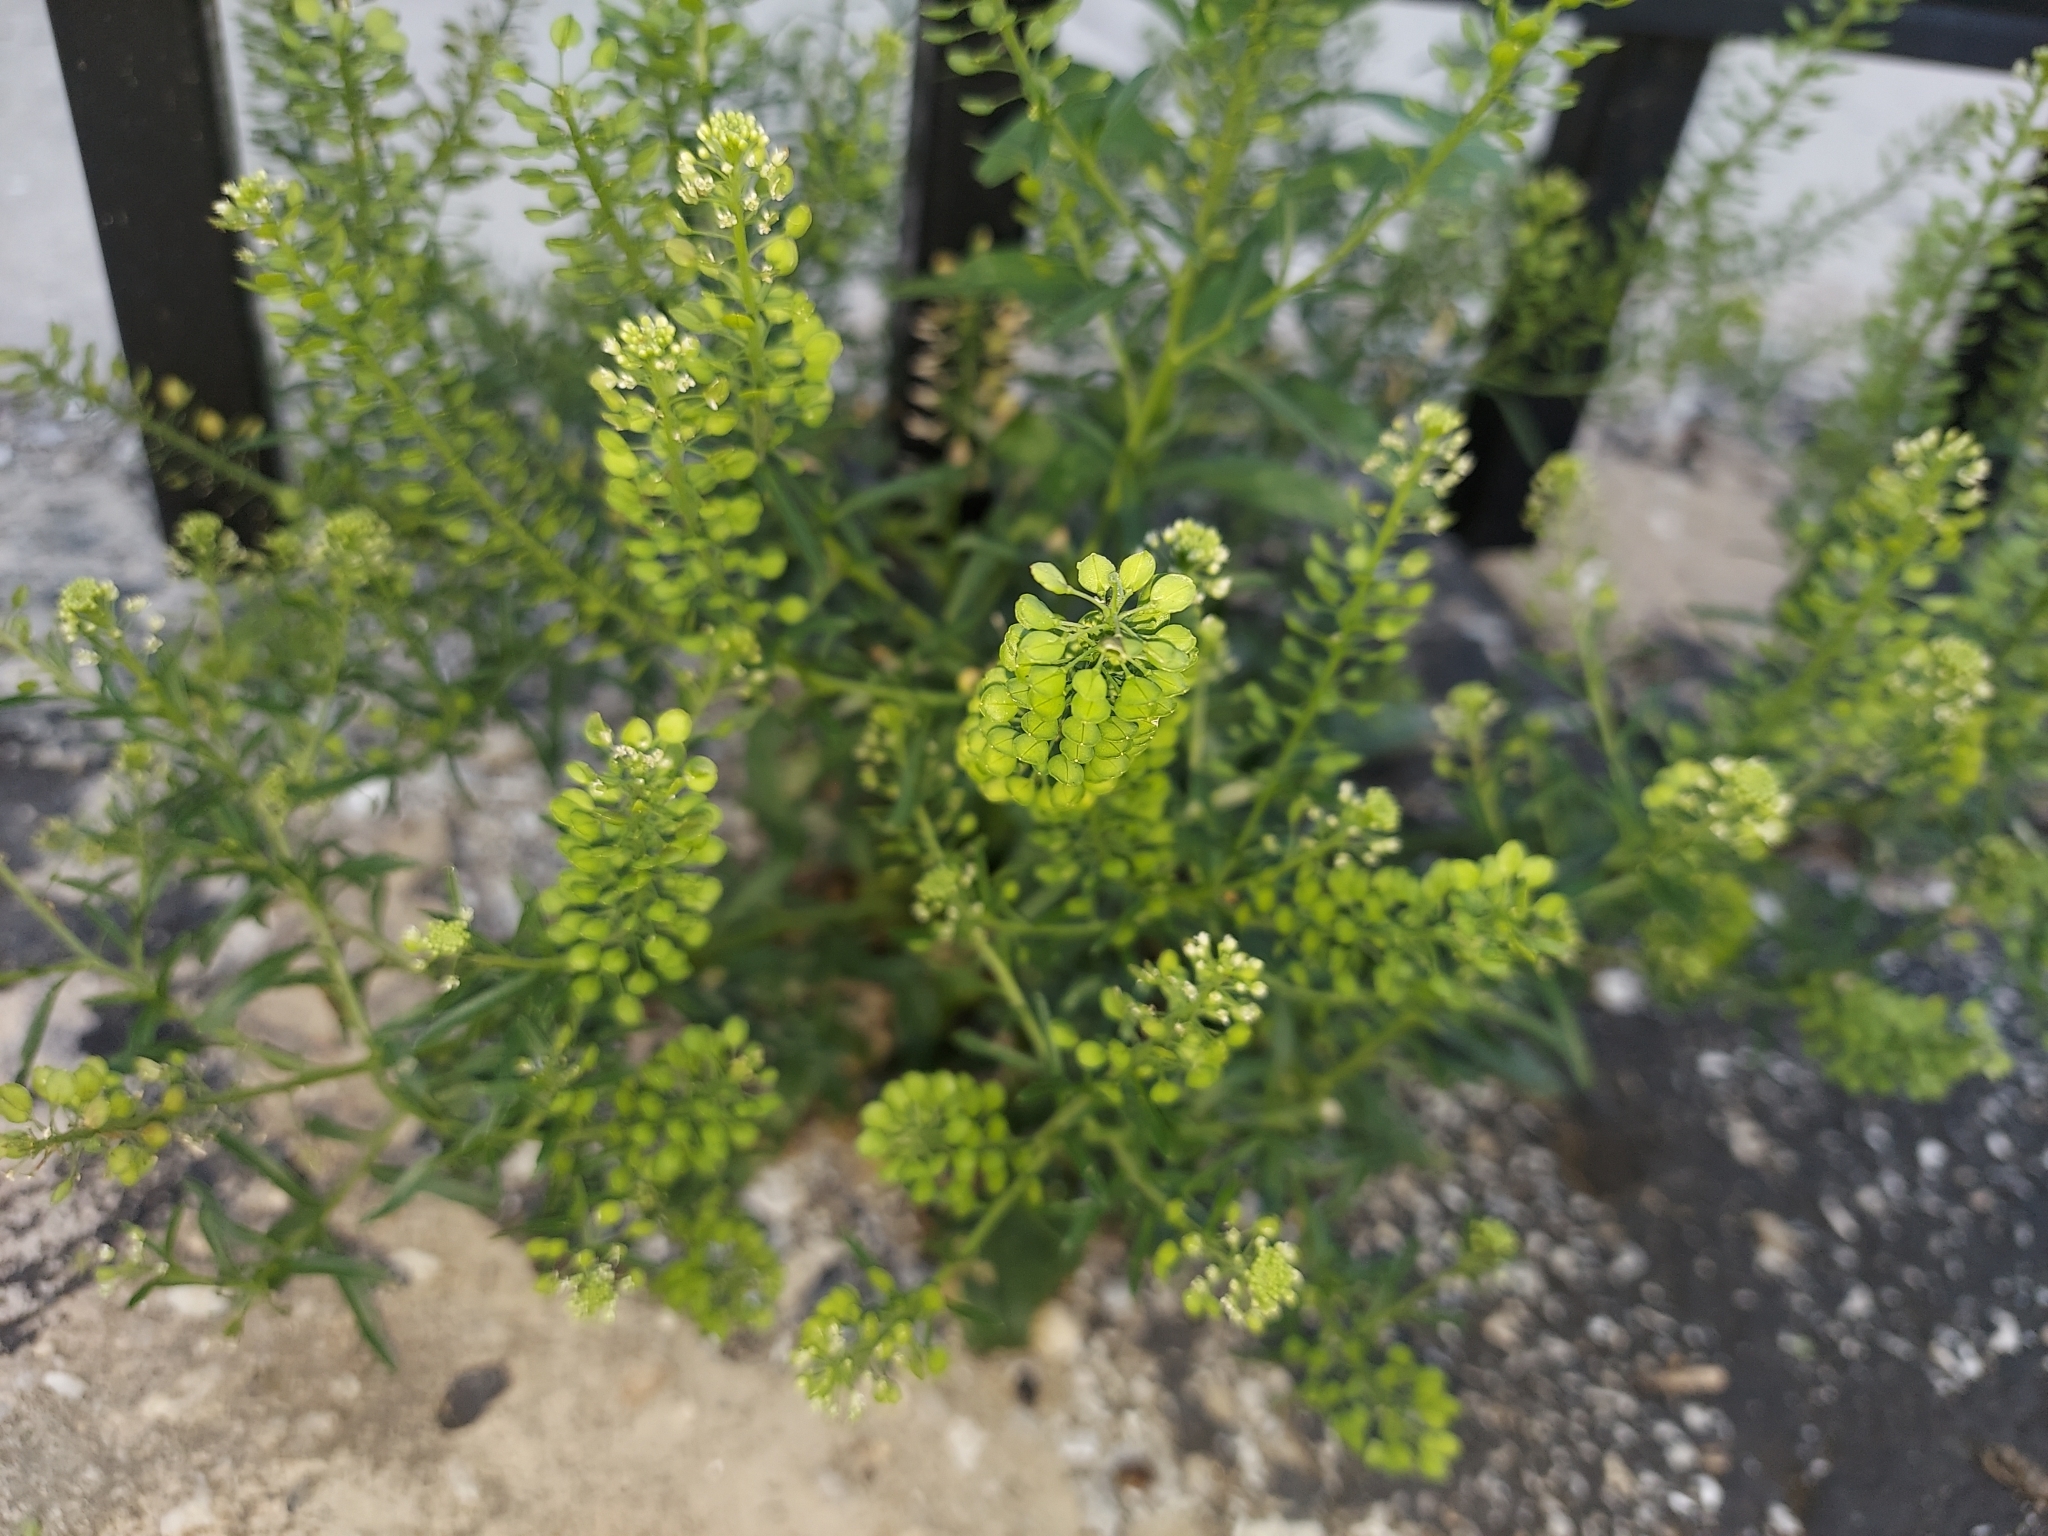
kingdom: Plantae
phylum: Tracheophyta
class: Magnoliopsida
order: Brassicales
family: Brassicaceae
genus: Lepidium
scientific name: Lepidium virginicum
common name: Least pepperwort
